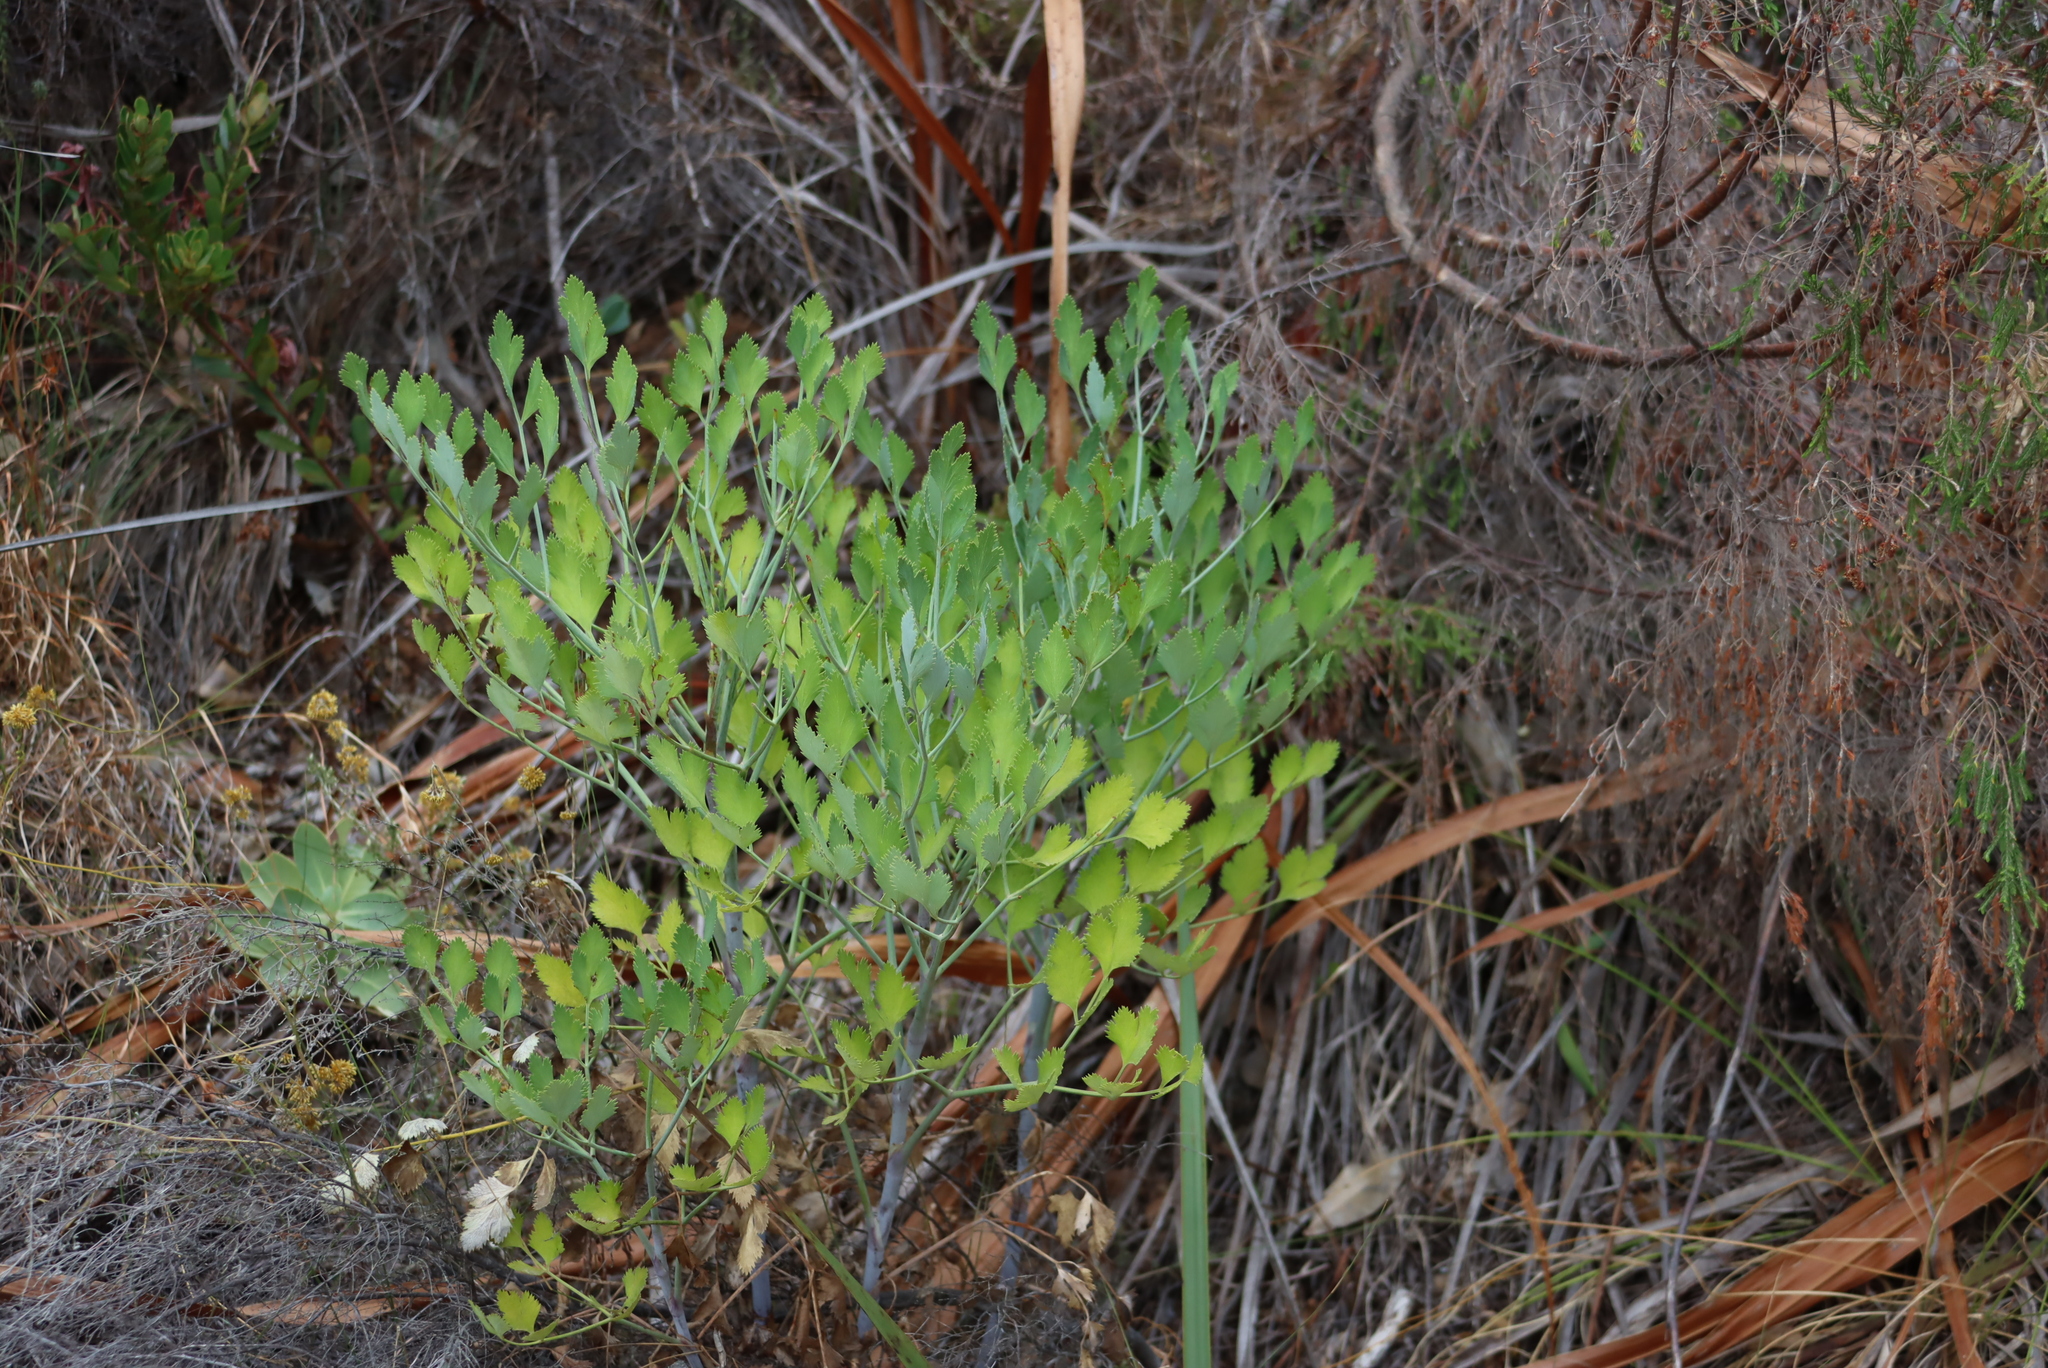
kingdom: Plantae
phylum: Tracheophyta
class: Magnoliopsida
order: Apiales
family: Apiaceae
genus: Notobubon
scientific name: Notobubon galbanum
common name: Blisterbush
